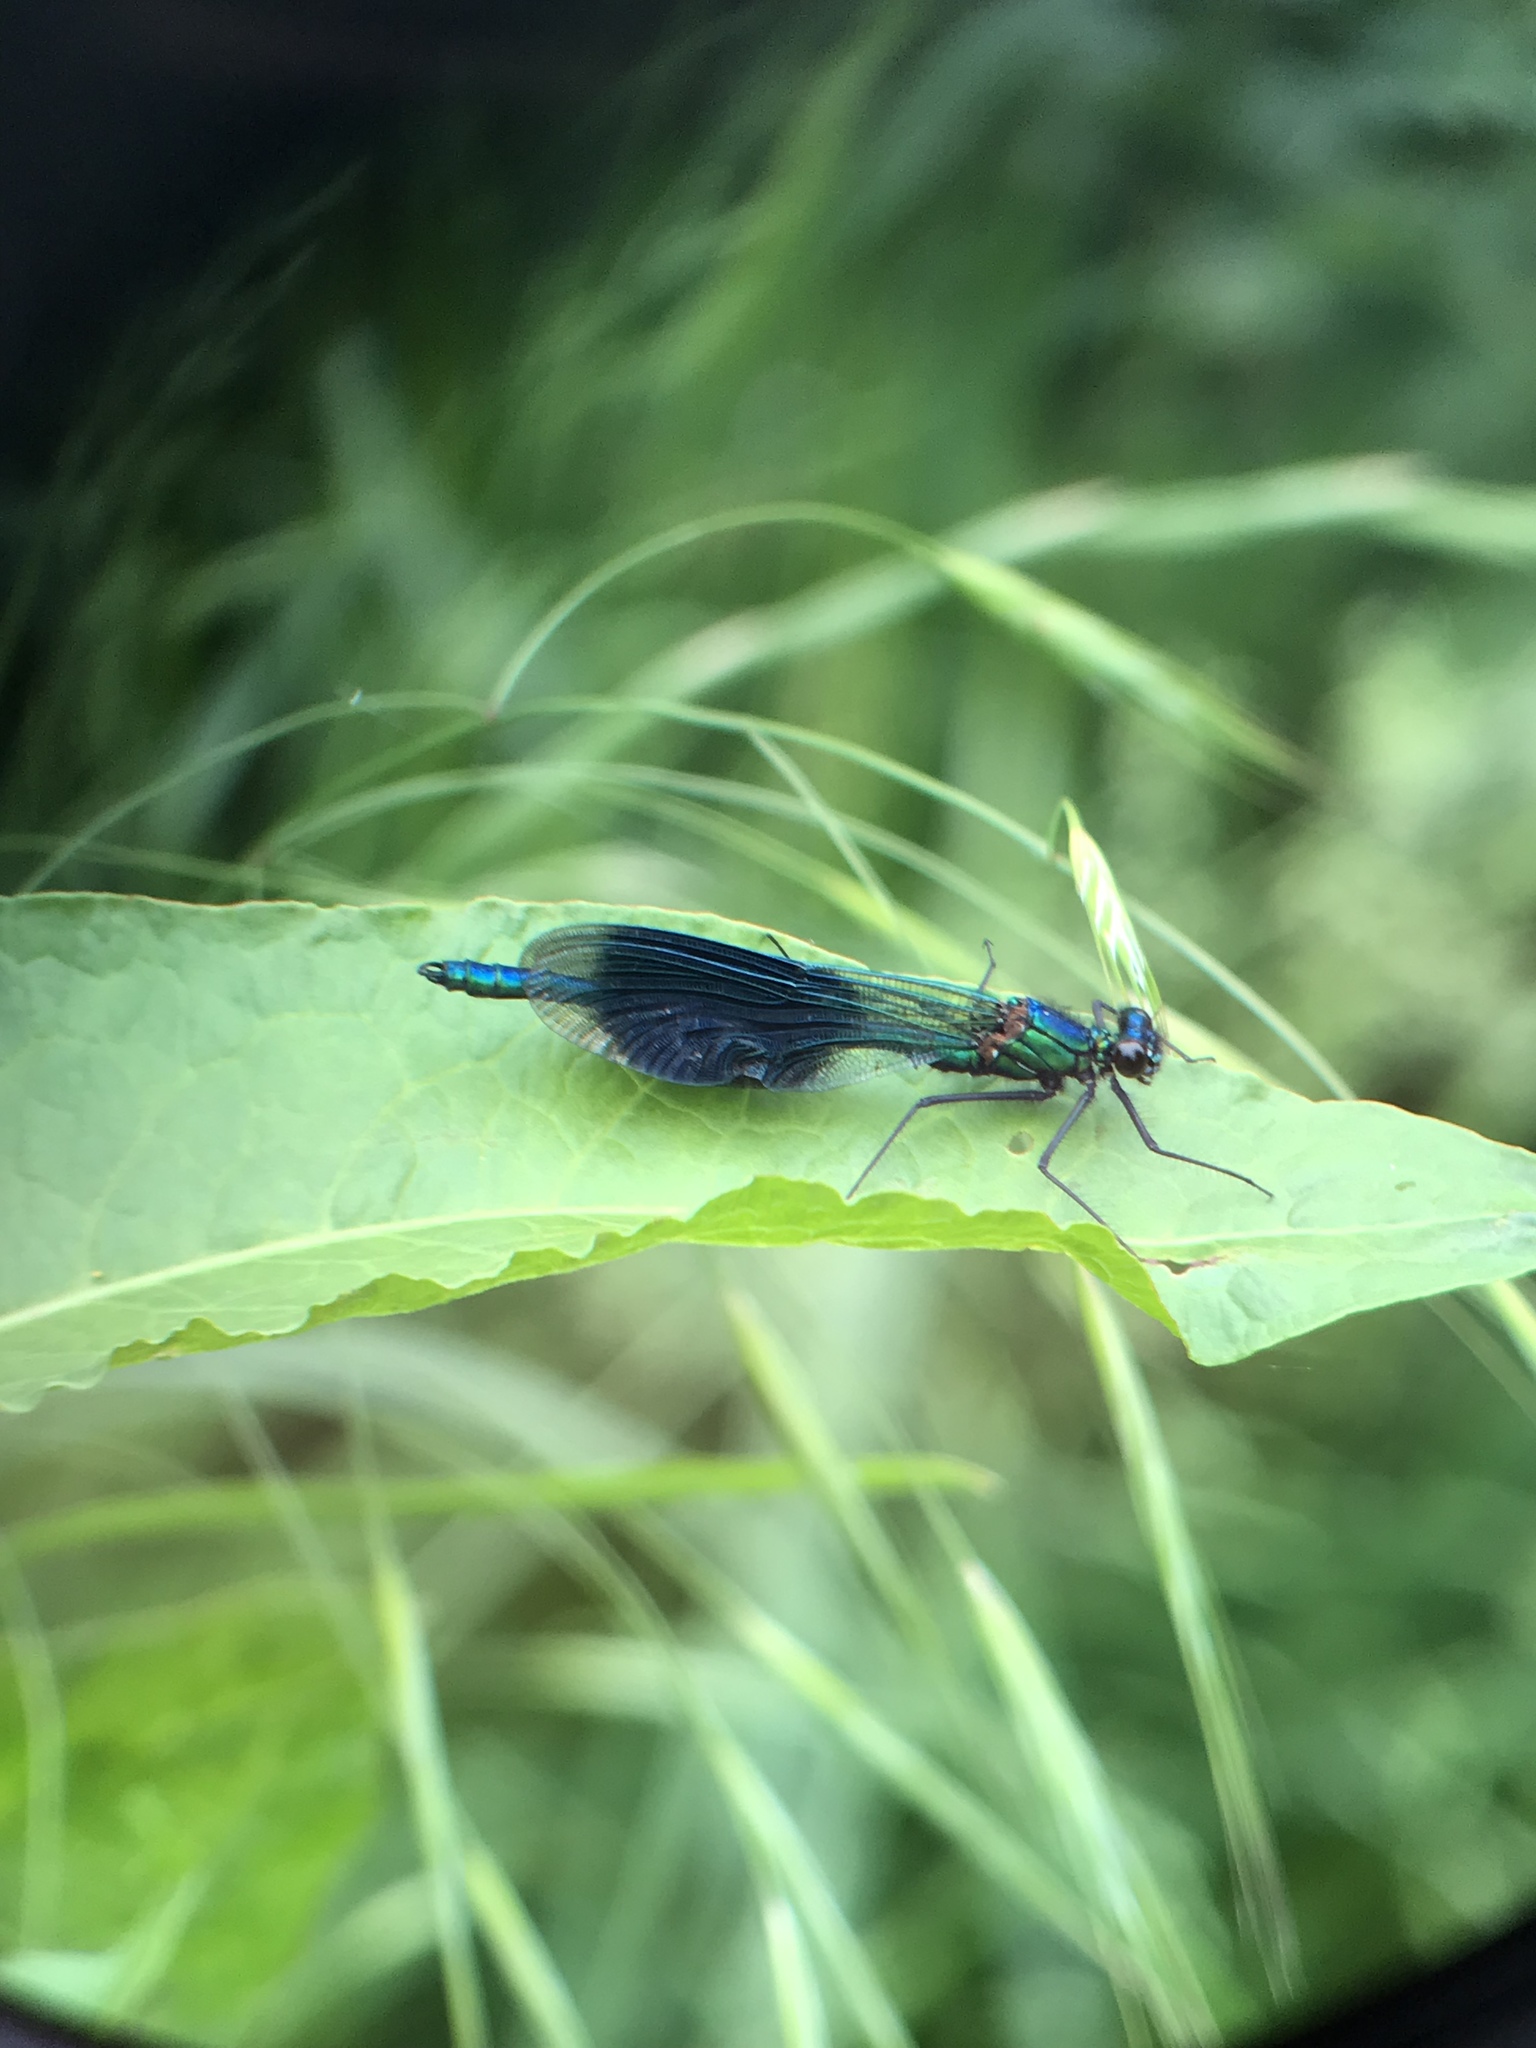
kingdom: Animalia
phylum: Arthropoda
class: Insecta
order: Odonata
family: Calopterygidae
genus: Calopteryx
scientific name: Calopteryx splendens
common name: Banded demoiselle
